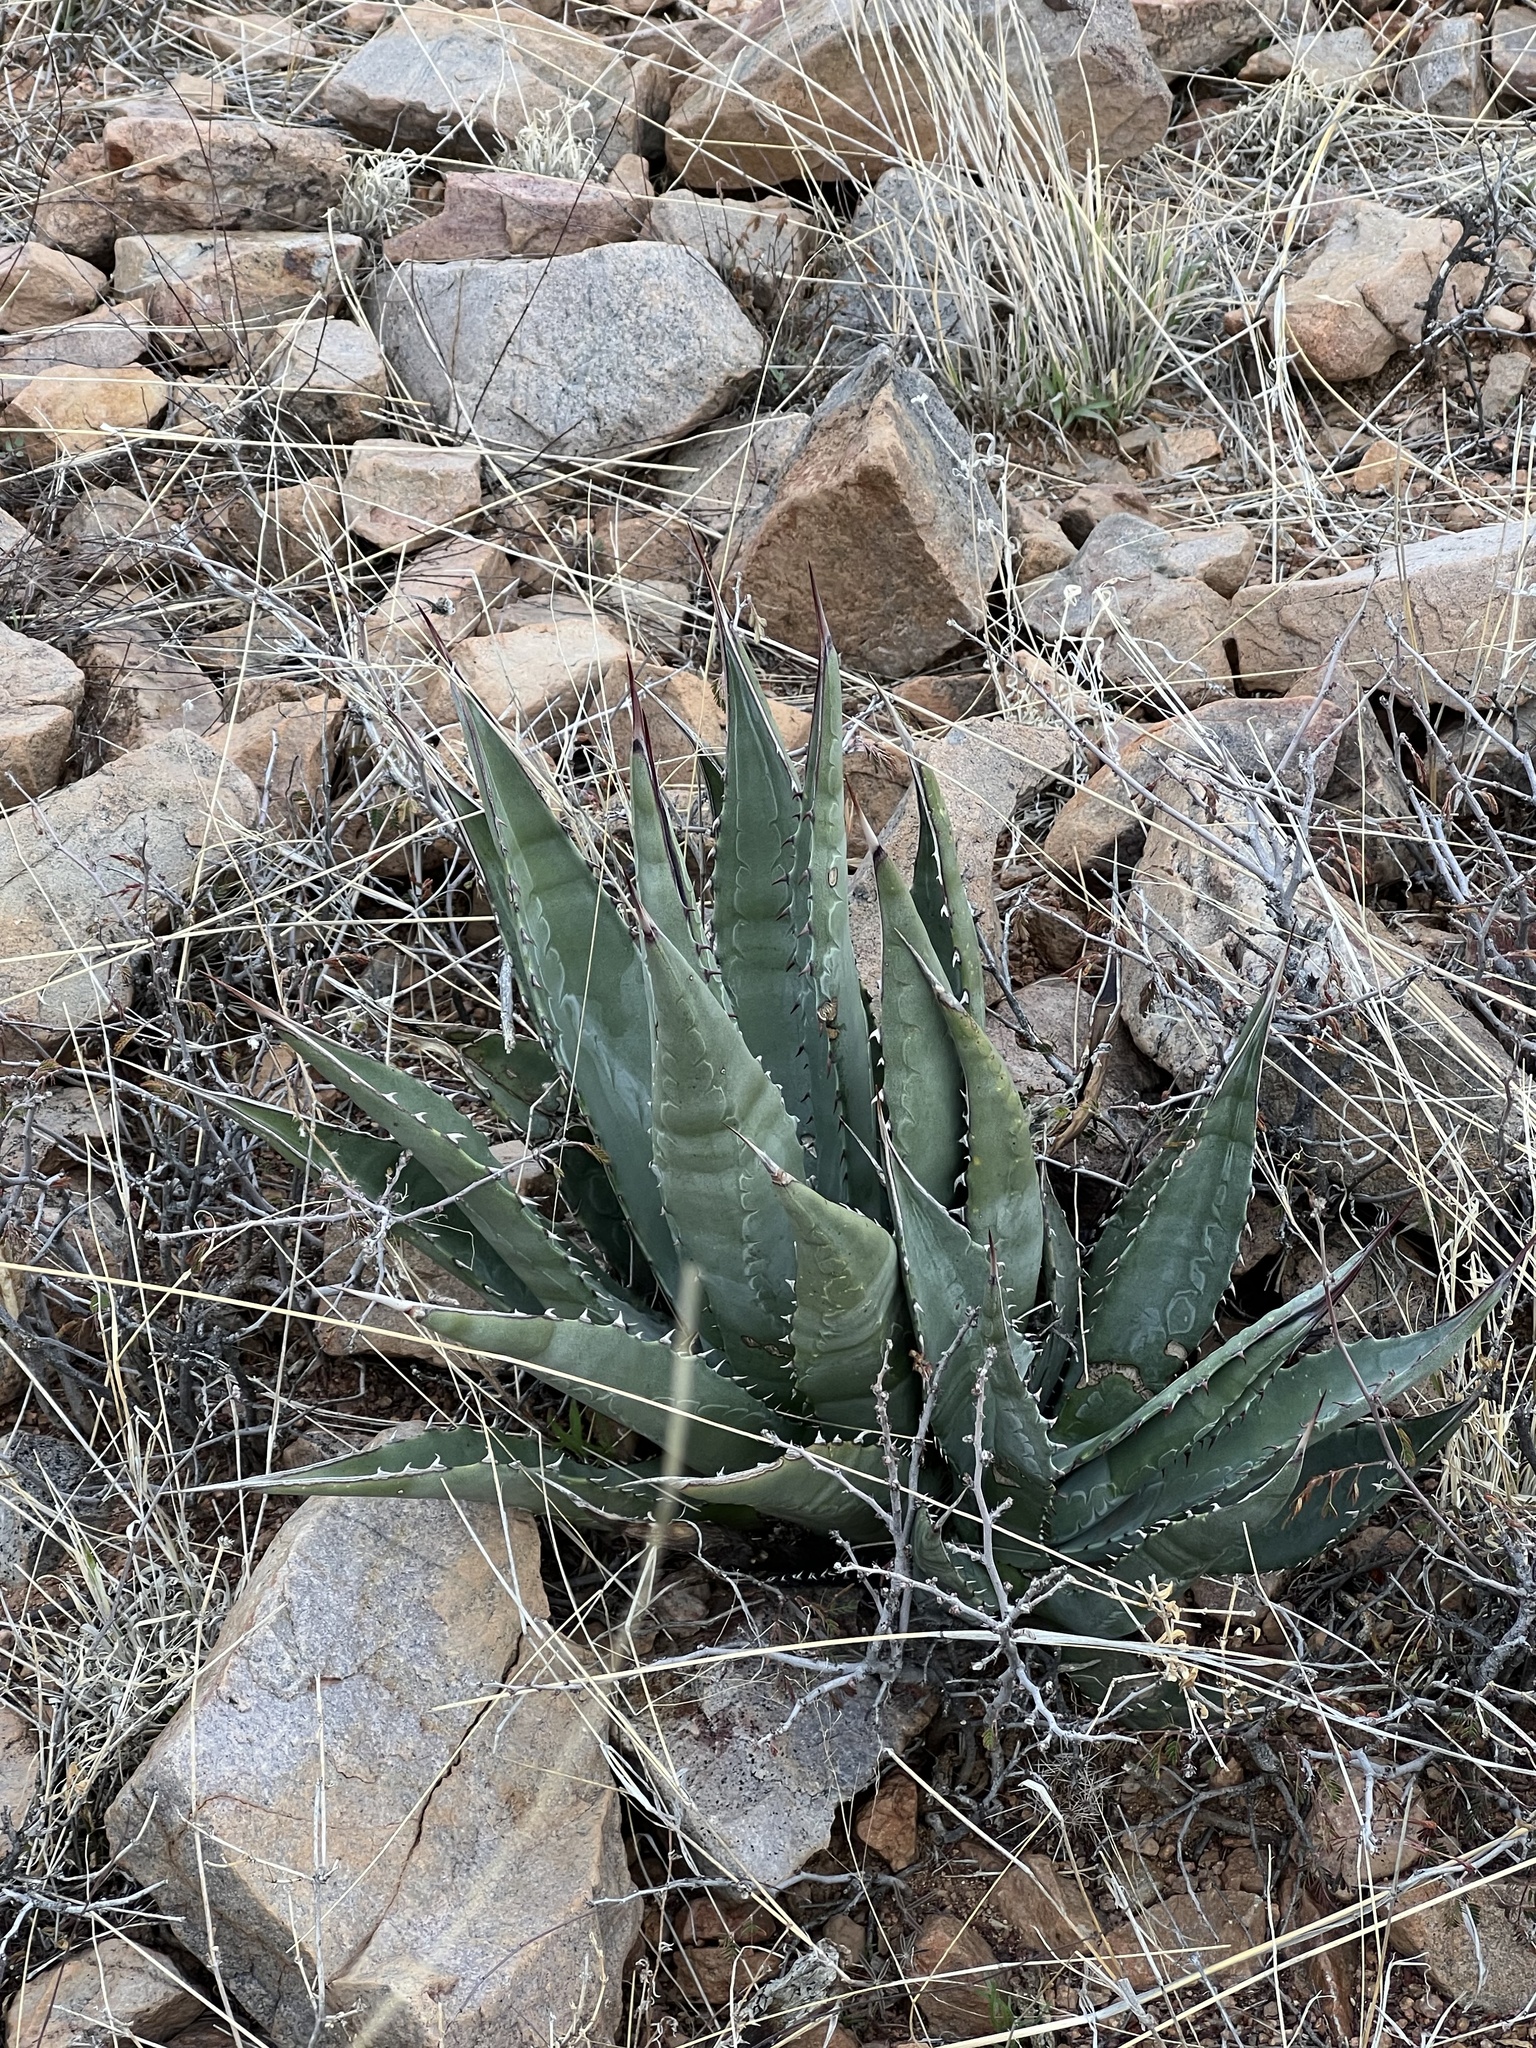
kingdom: Plantae
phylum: Tracheophyta
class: Liliopsida
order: Asparagales
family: Asparagaceae
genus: Agave
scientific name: Agave palmeri
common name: Palmer agave
